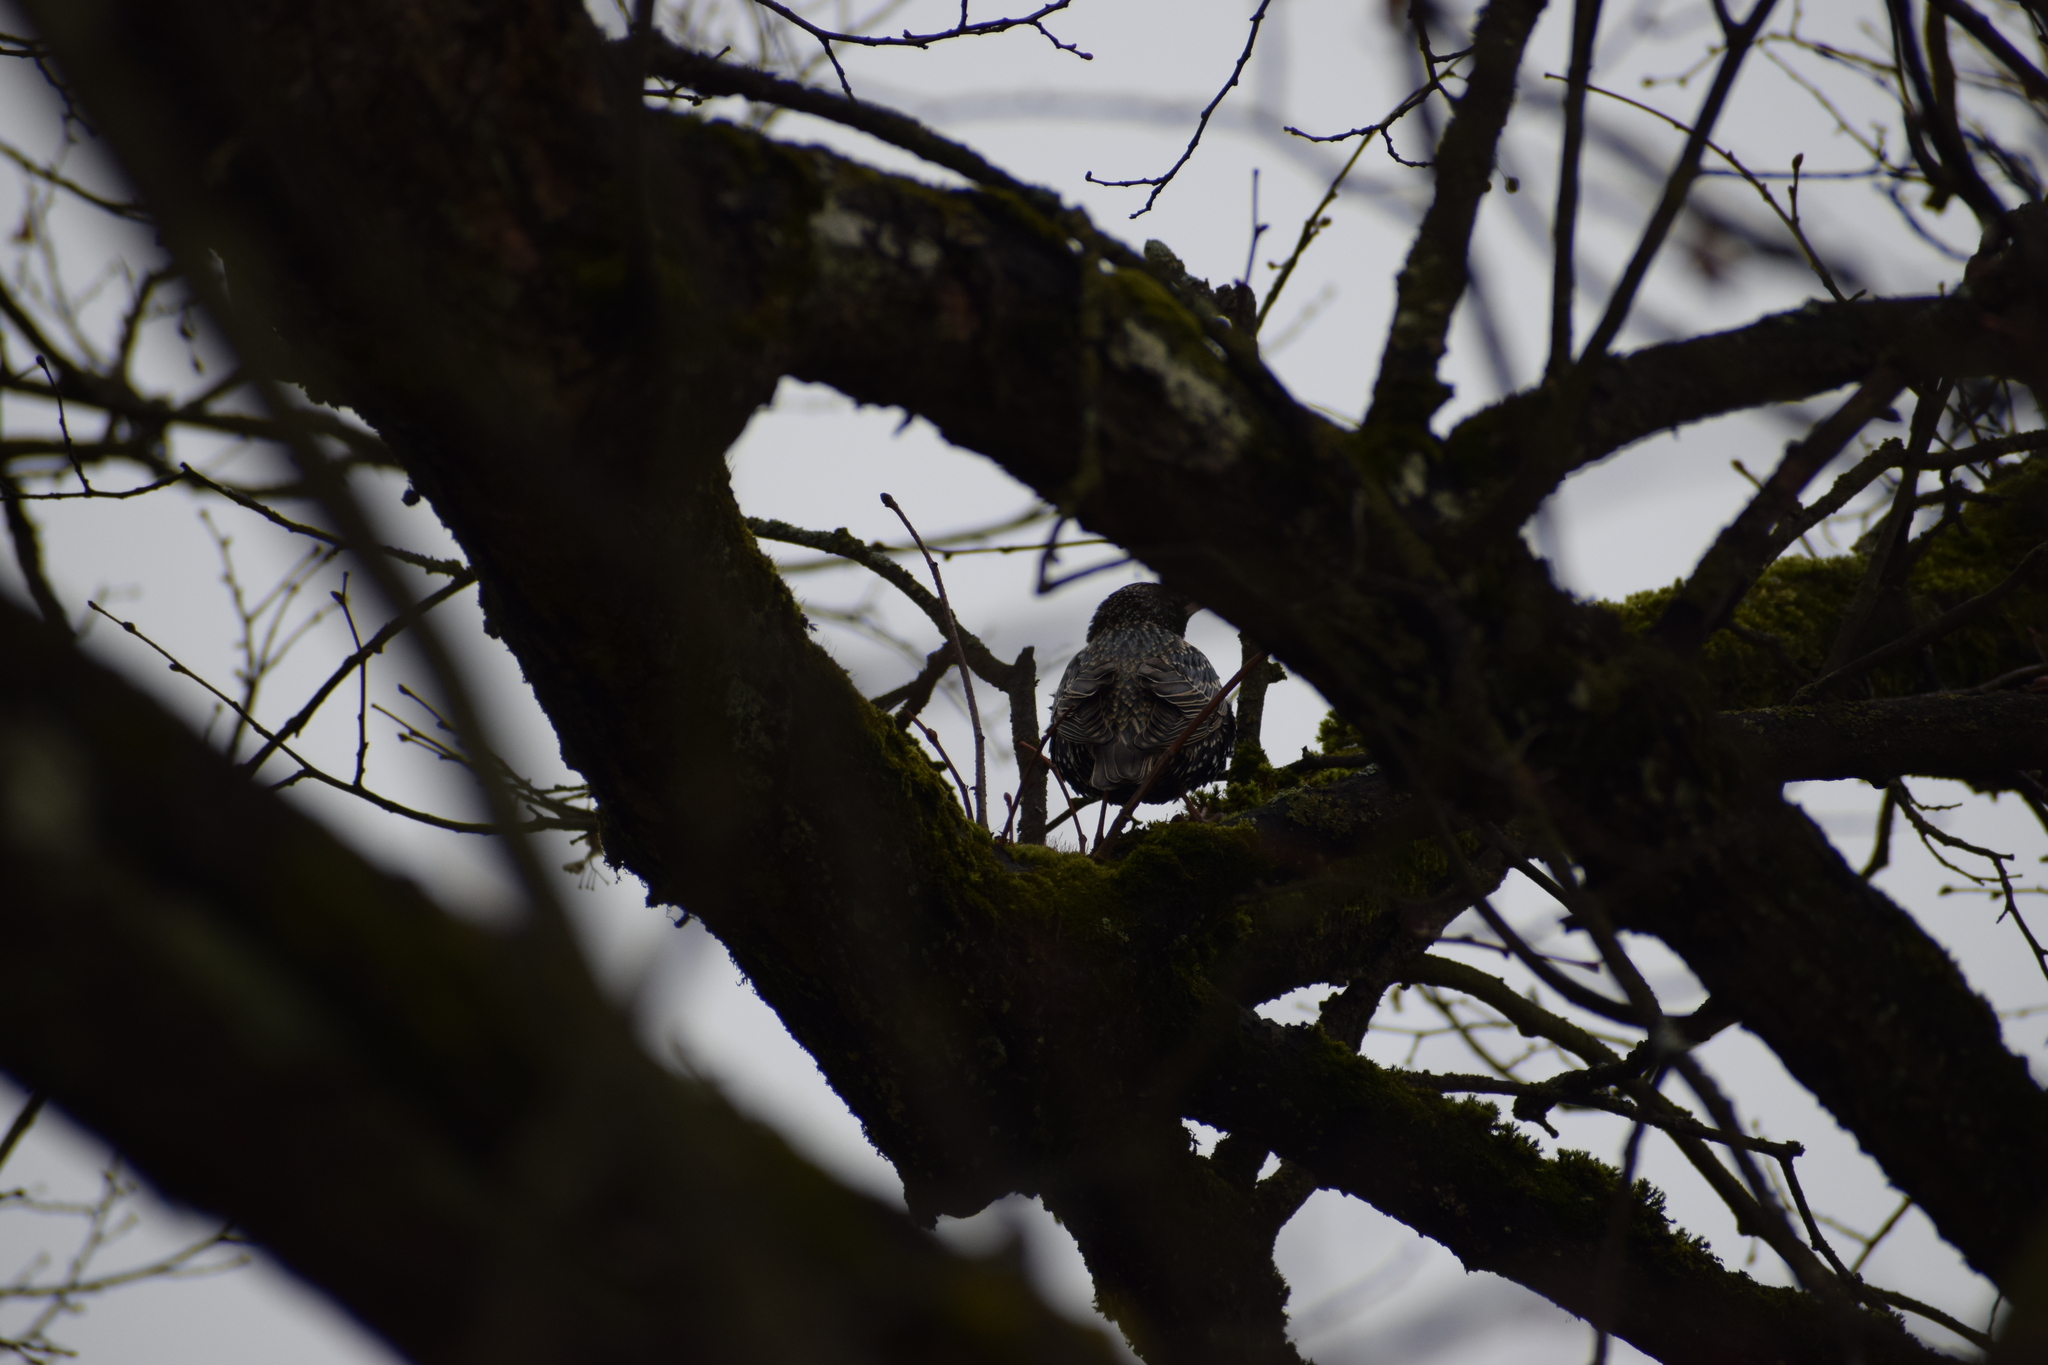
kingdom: Animalia
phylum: Chordata
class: Aves
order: Passeriformes
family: Sturnidae
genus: Sturnus
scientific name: Sturnus vulgaris
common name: Common starling
